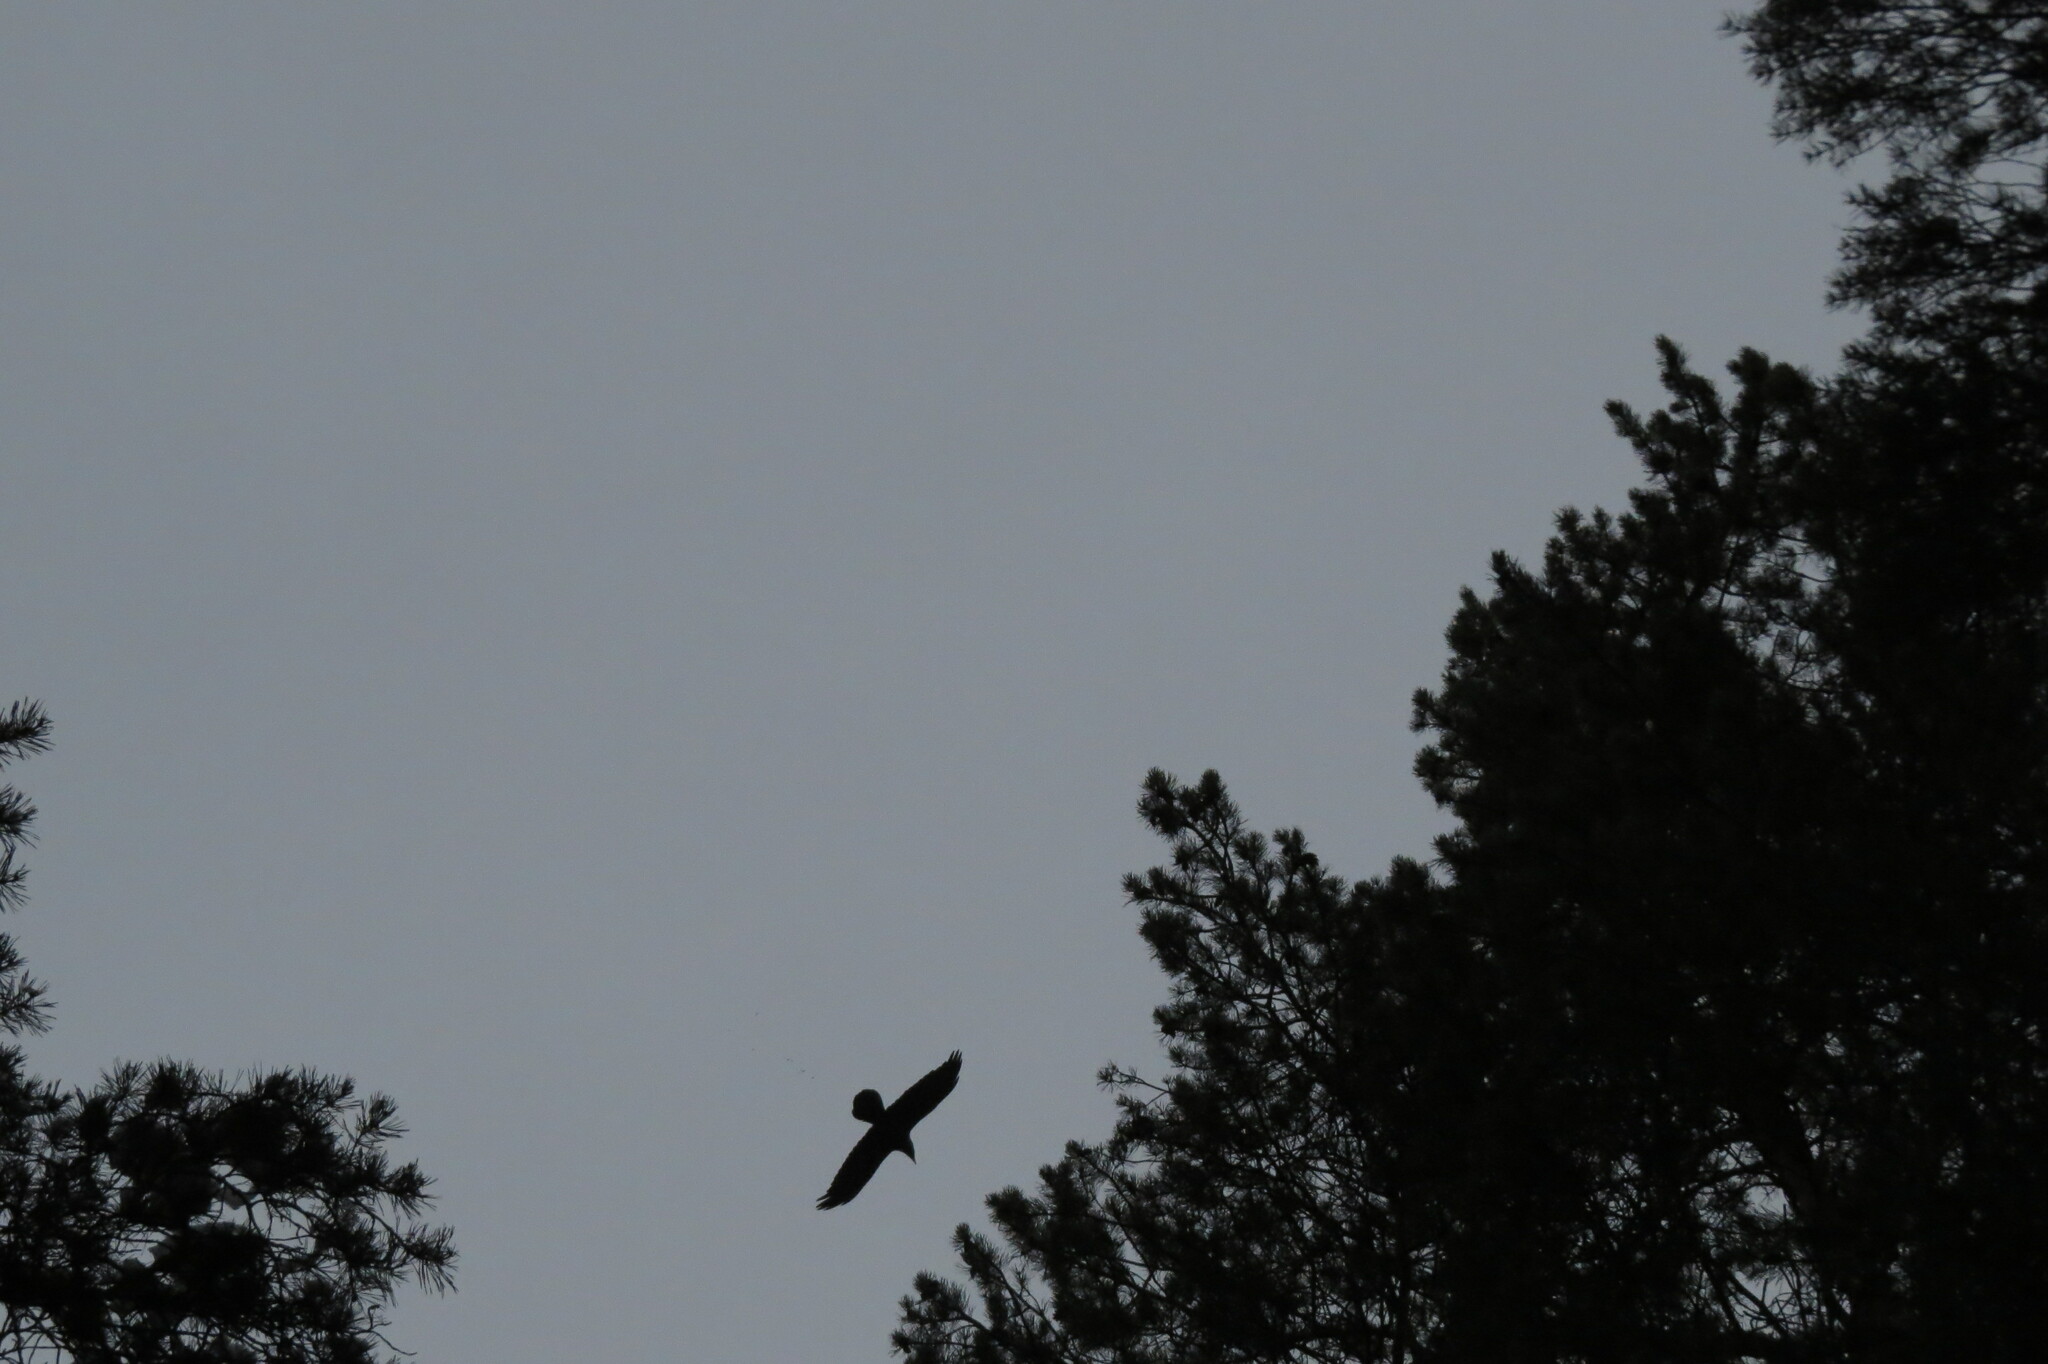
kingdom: Animalia
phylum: Chordata
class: Aves
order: Passeriformes
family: Corvidae
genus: Corvus
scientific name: Corvus corax
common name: Common raven
